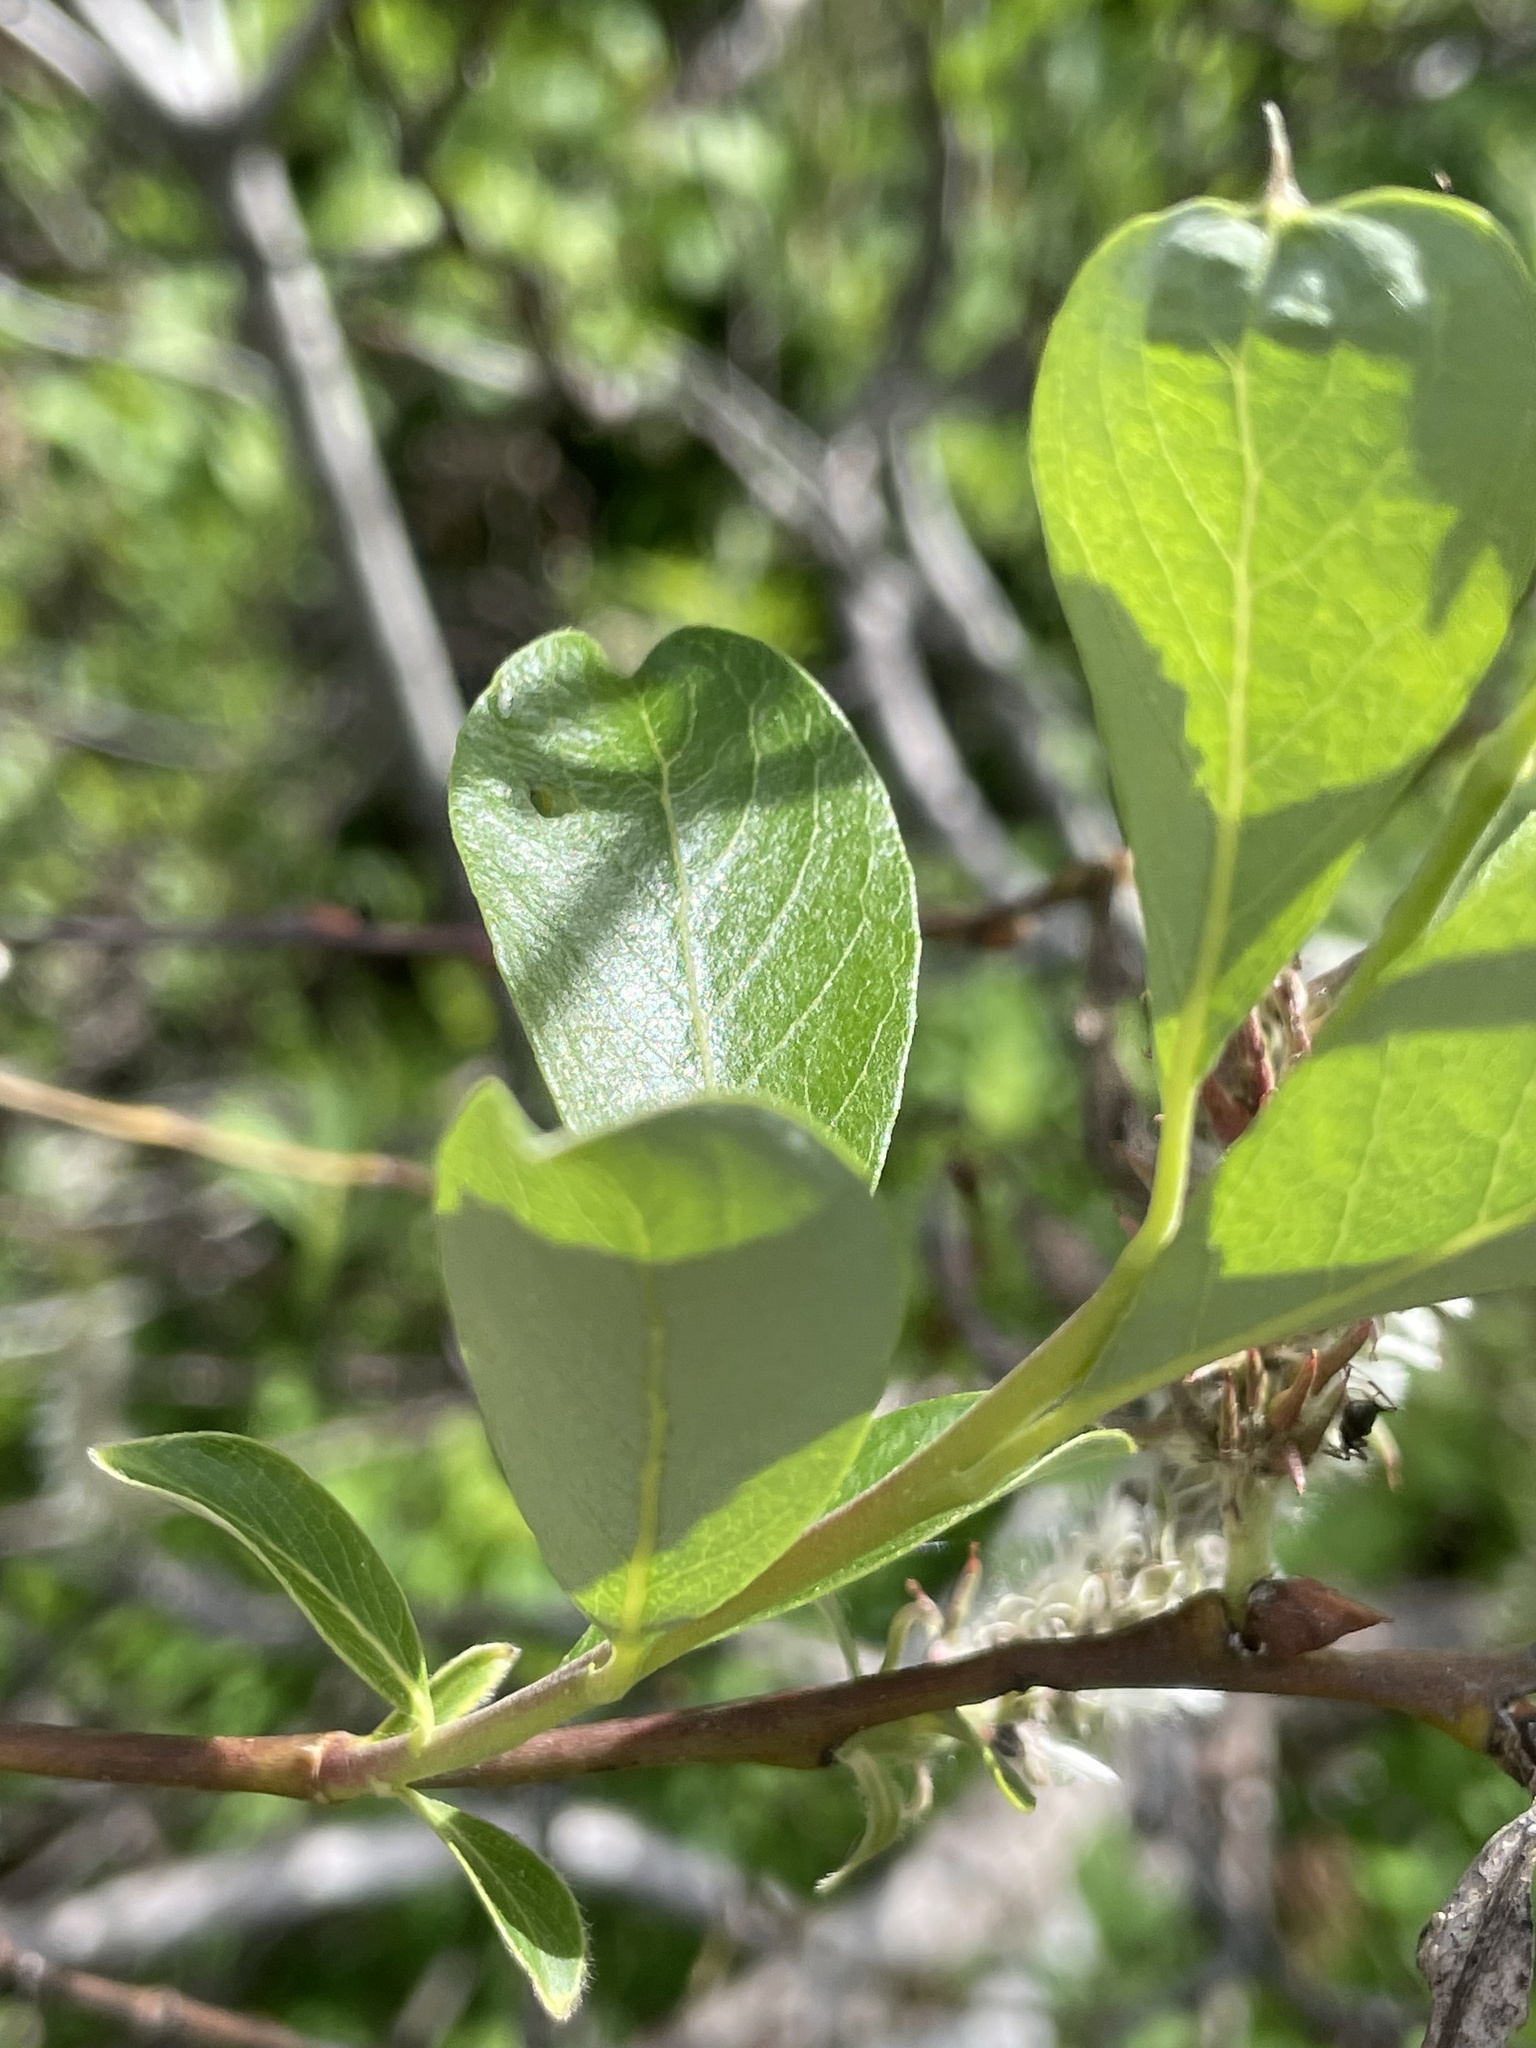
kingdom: Plantae
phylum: Tracheophyta
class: Magnoliopsida
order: Malpighiales
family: Salicaceae
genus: Salix
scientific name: Salix scouleriana
